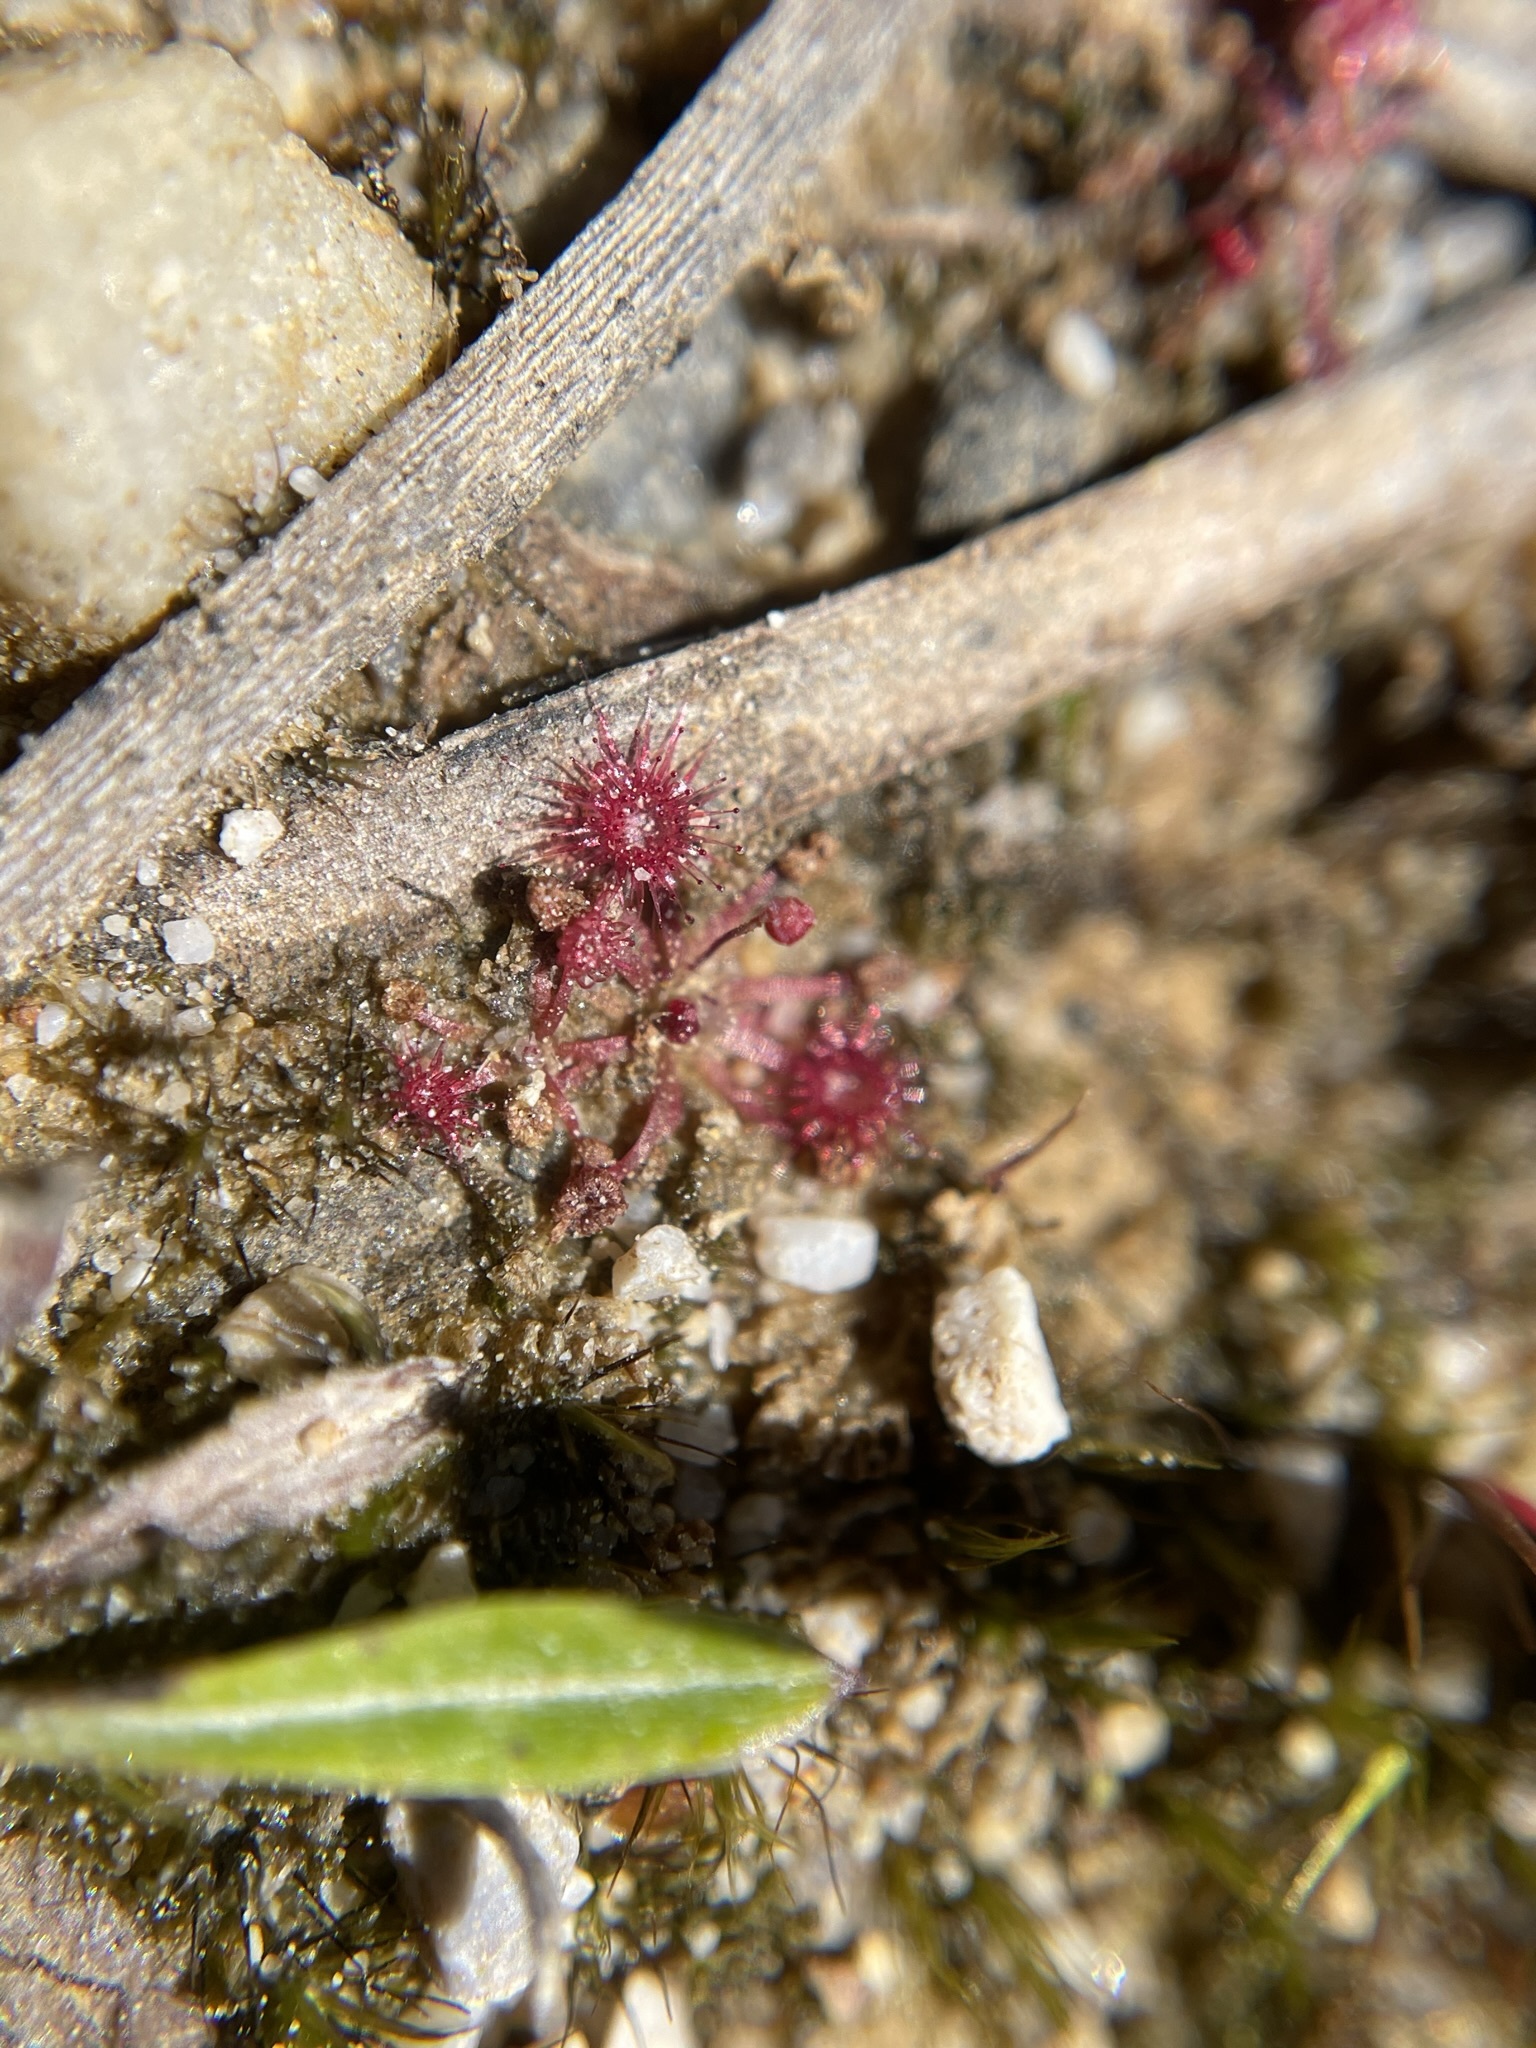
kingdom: Plantae
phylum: Tracheophyta
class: Magnoliopsida
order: Caryophyllales
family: Droseraceae
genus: Drosera
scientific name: Drosera pygmaea
